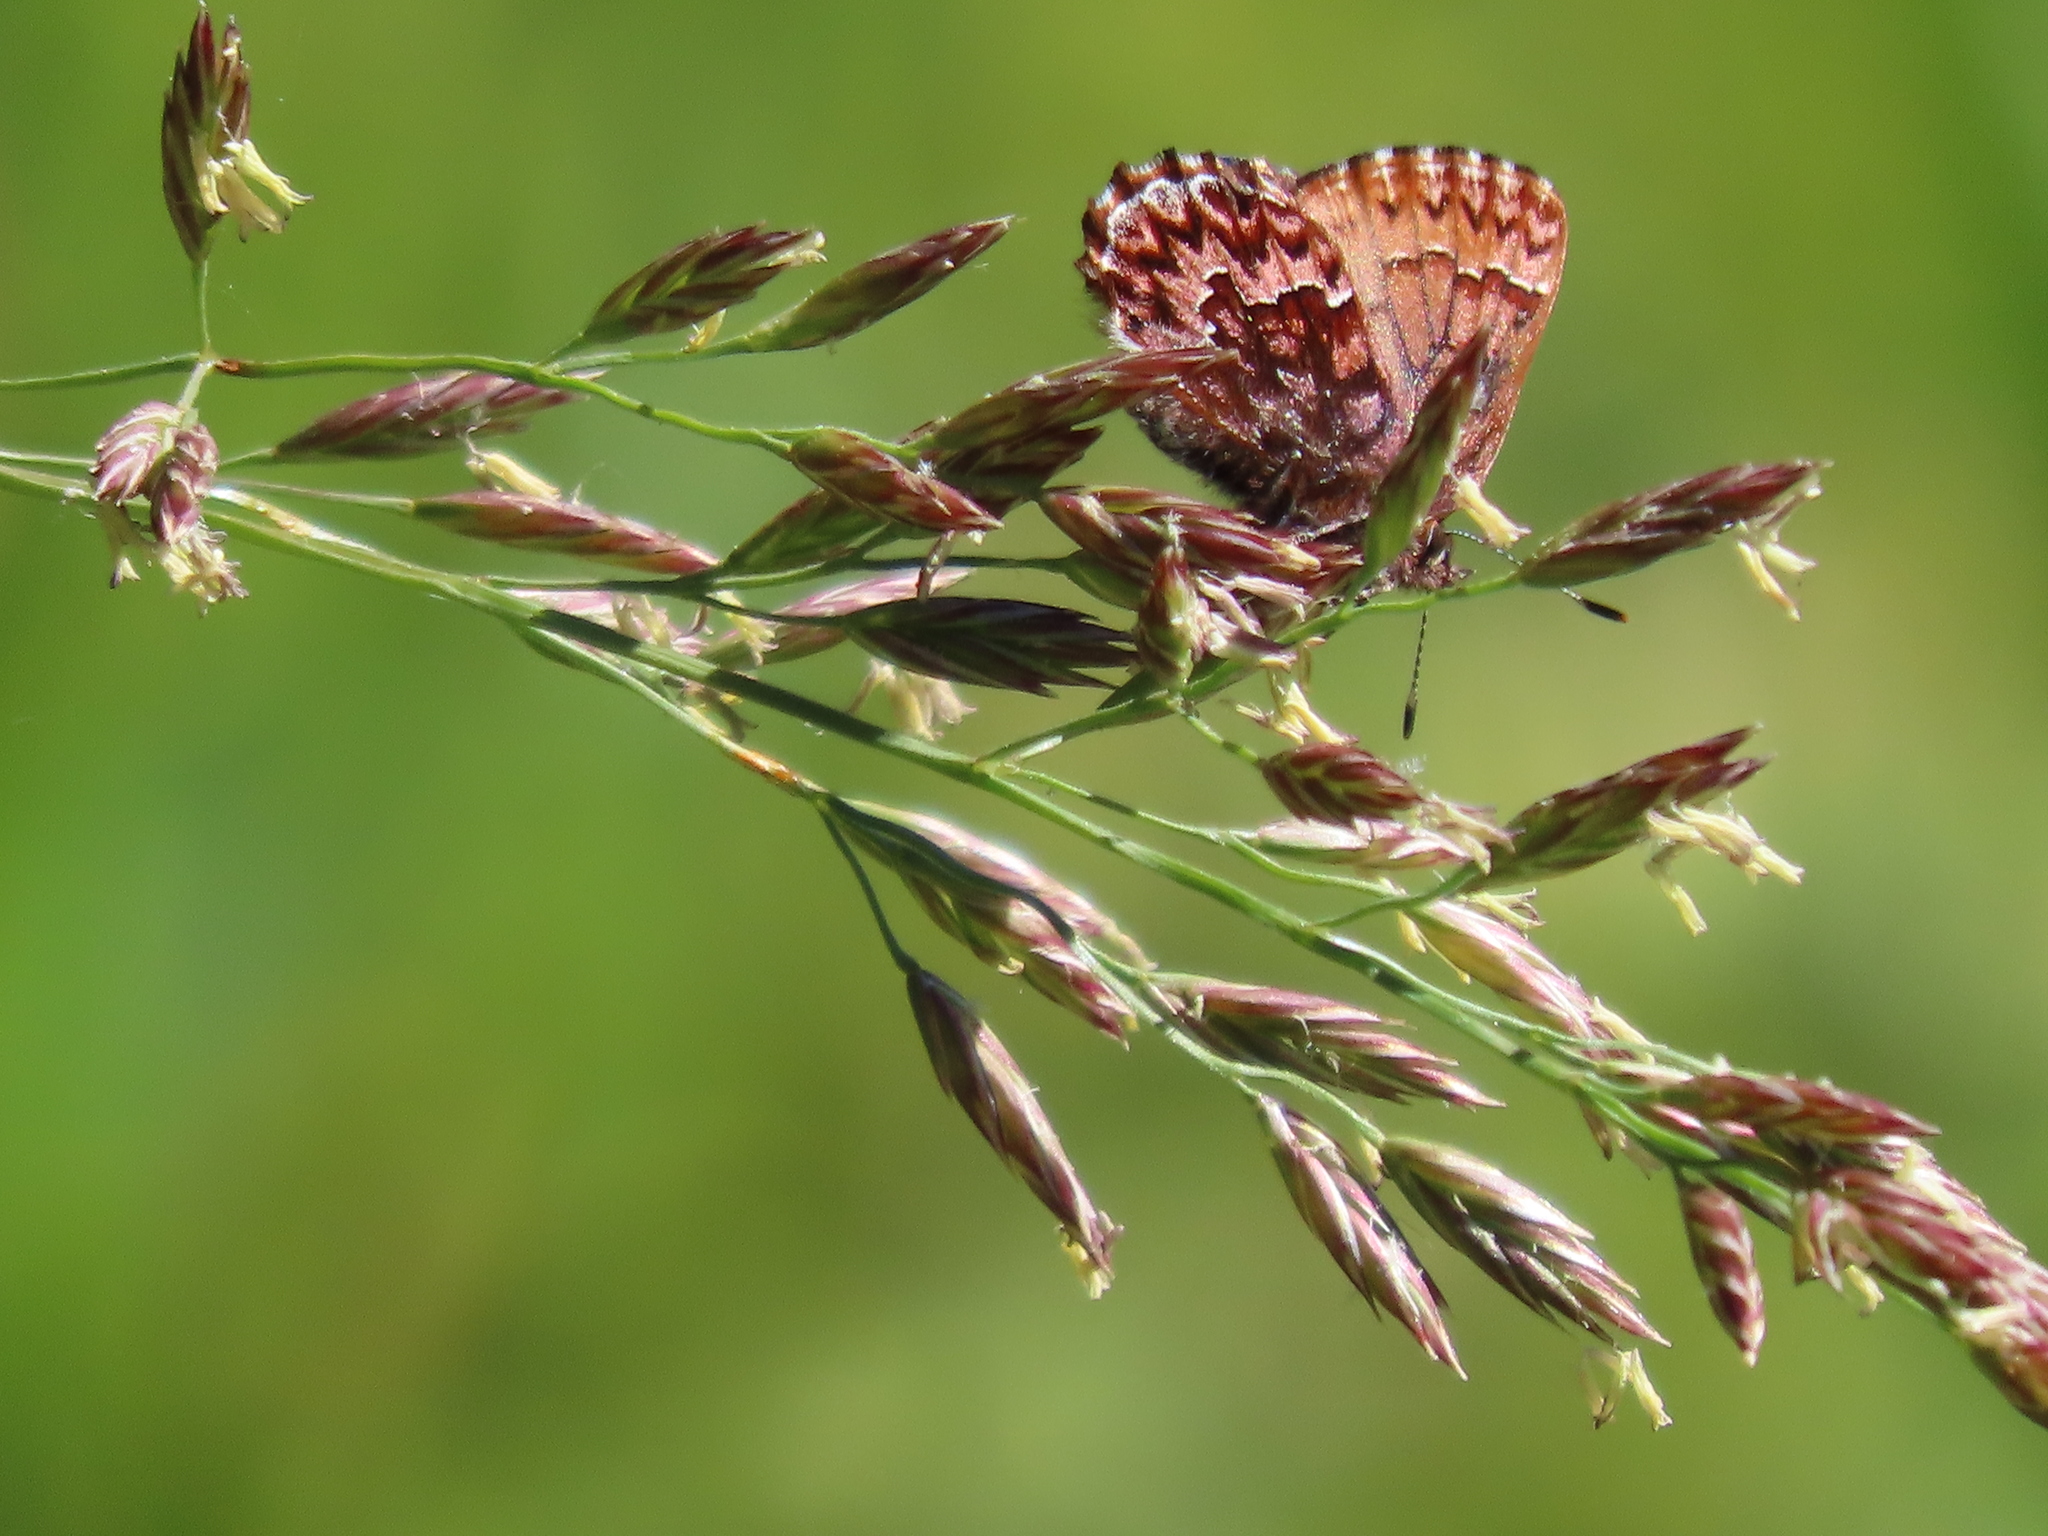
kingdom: Animalia
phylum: Arthropoda
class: Insecta
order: Lepidoptera
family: Lycaenidae
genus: Incisalia
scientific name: Incisalia eryphon
